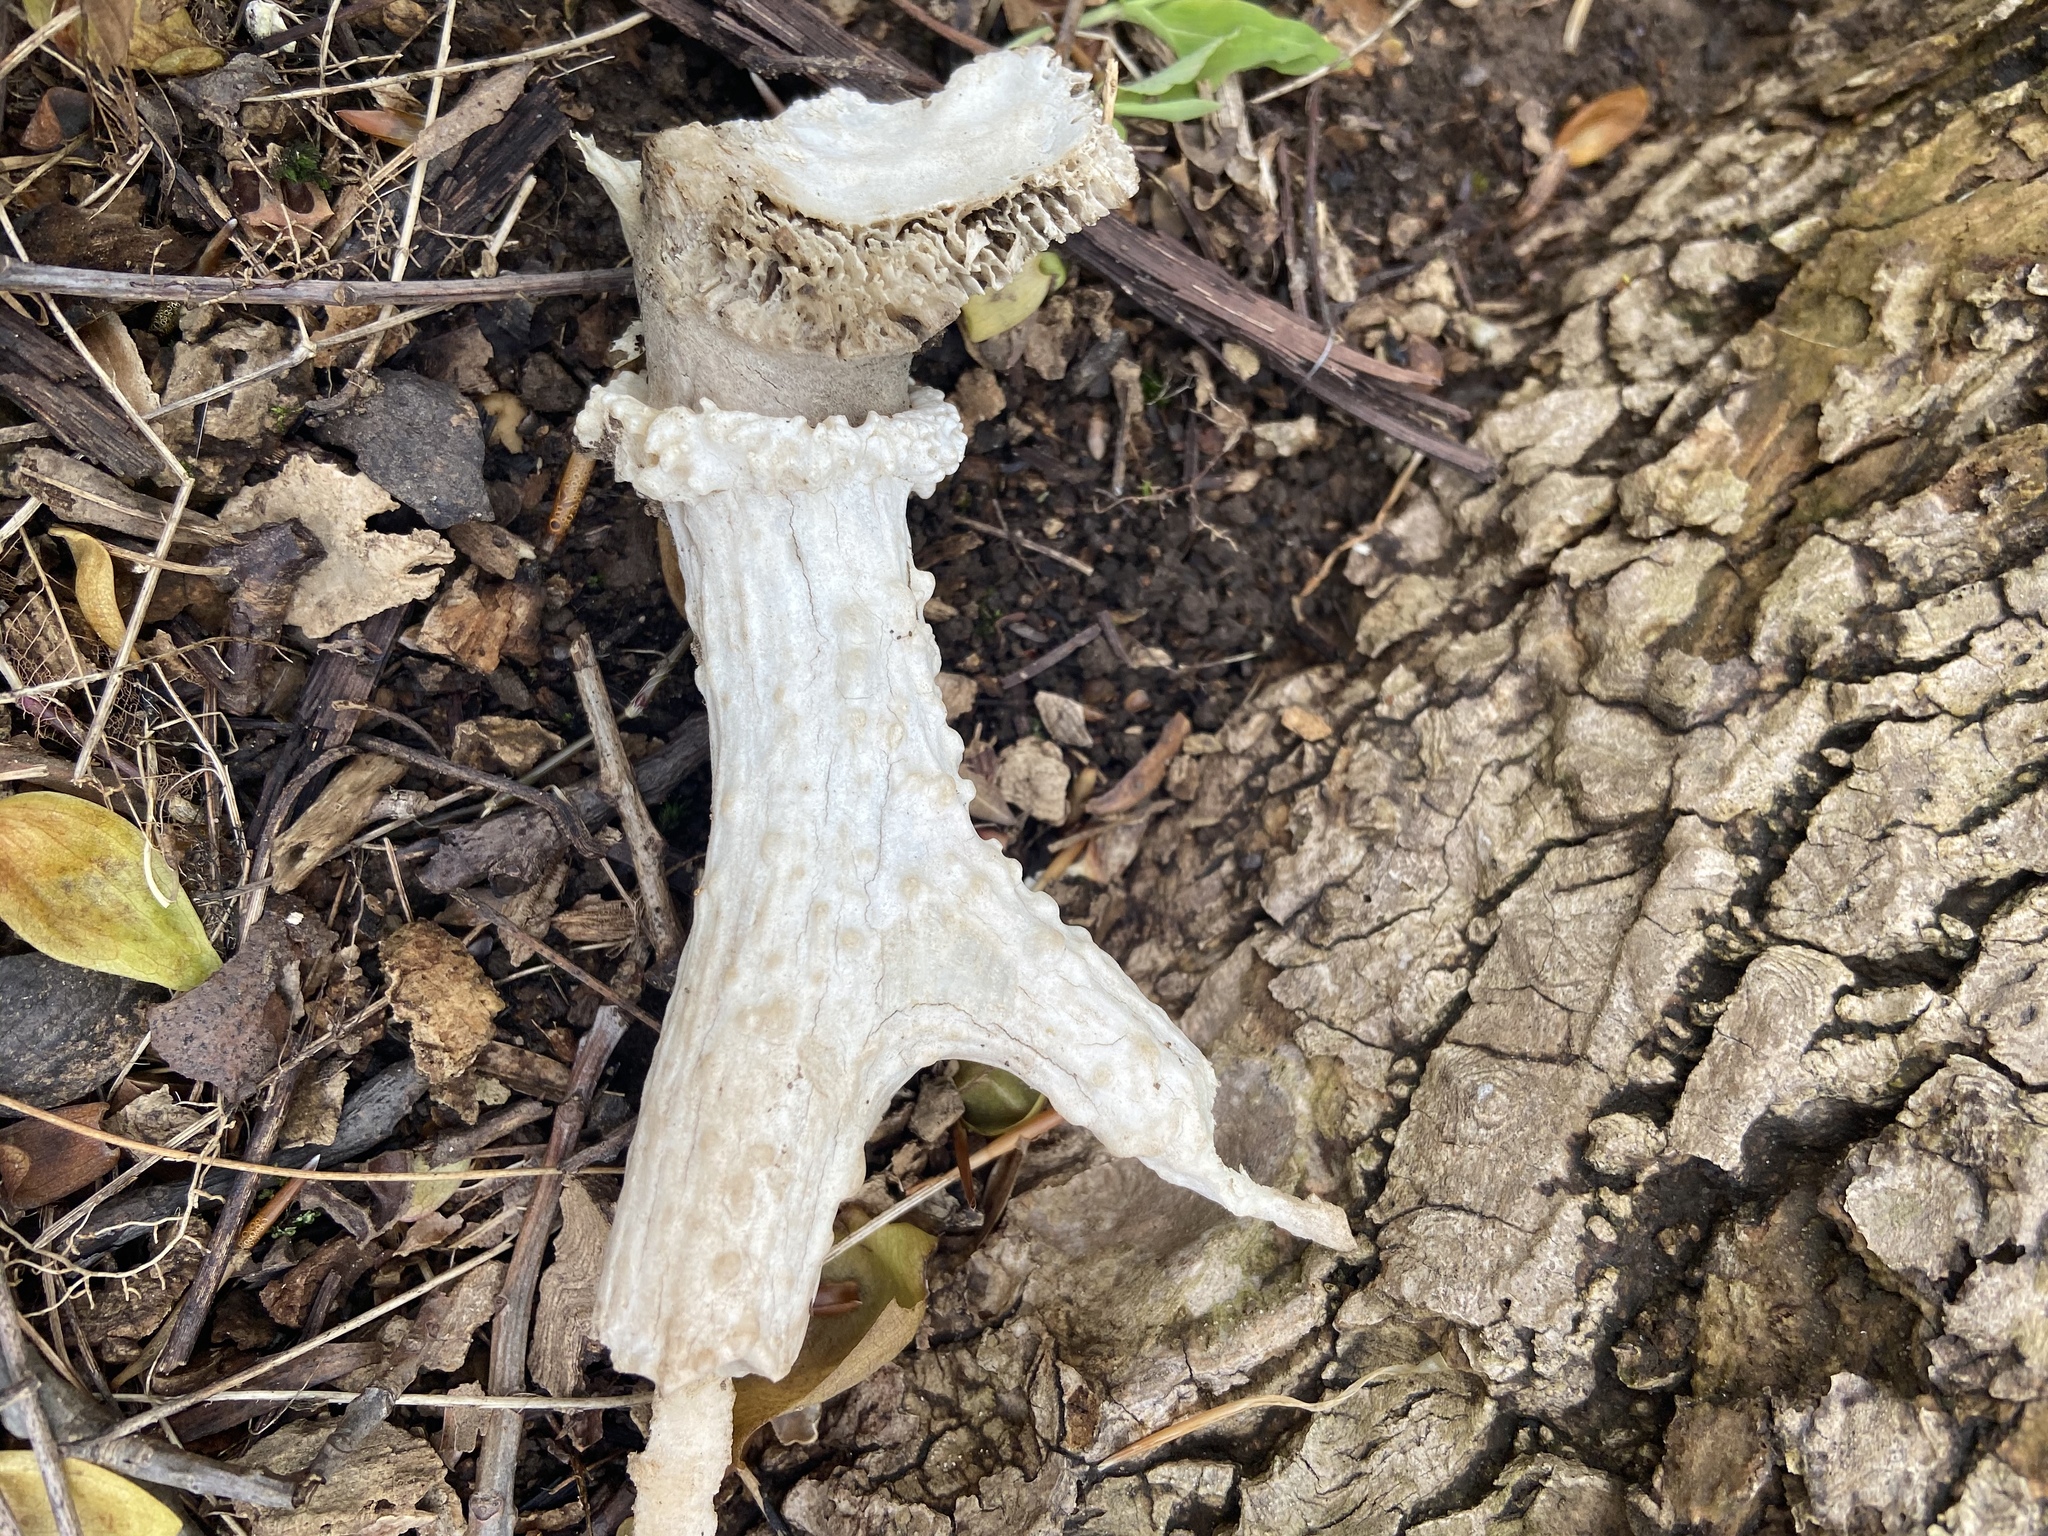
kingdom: Animalia
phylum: Chordata
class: Mammalia
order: Artiodactyla
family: Cervidae
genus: Odocoileus
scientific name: Odocoileus virginianus
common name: White-tailed deer
